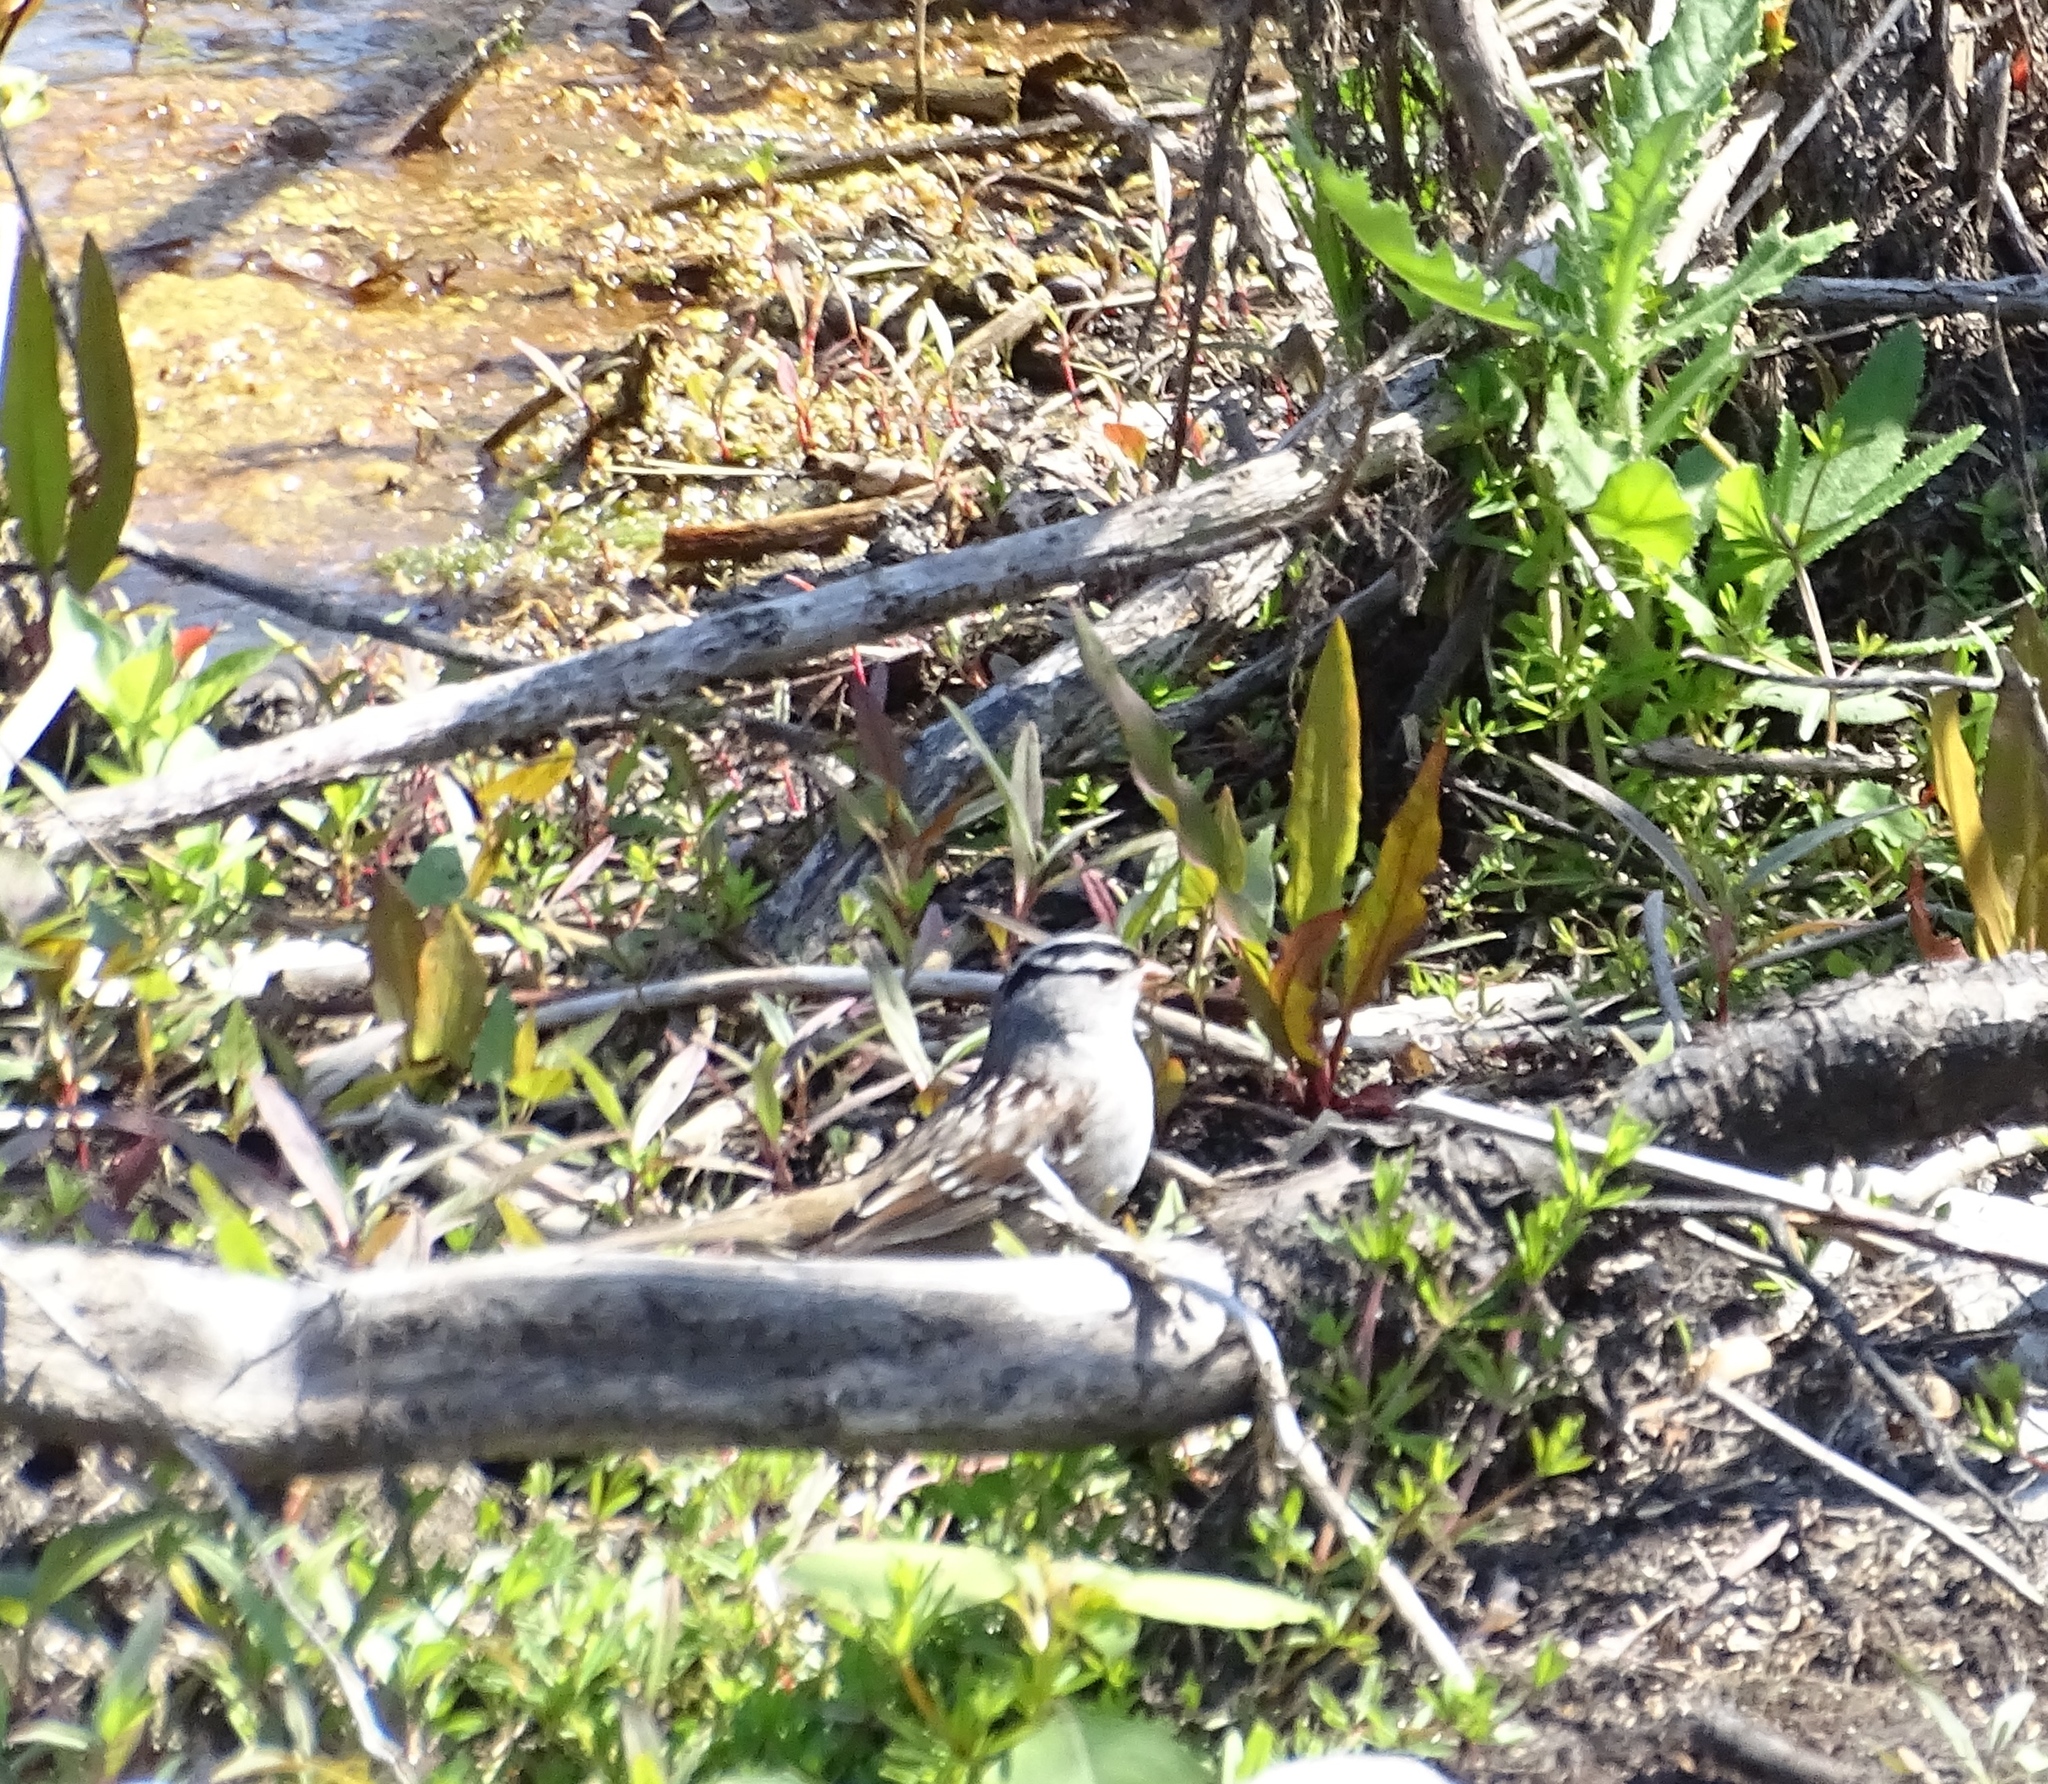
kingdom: Animalia
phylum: Chordata
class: Aves
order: Passeriformes
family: Passerellidae
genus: Zonotrichia
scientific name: Zonotrichia leucophrys
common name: White-crowned sparrow
